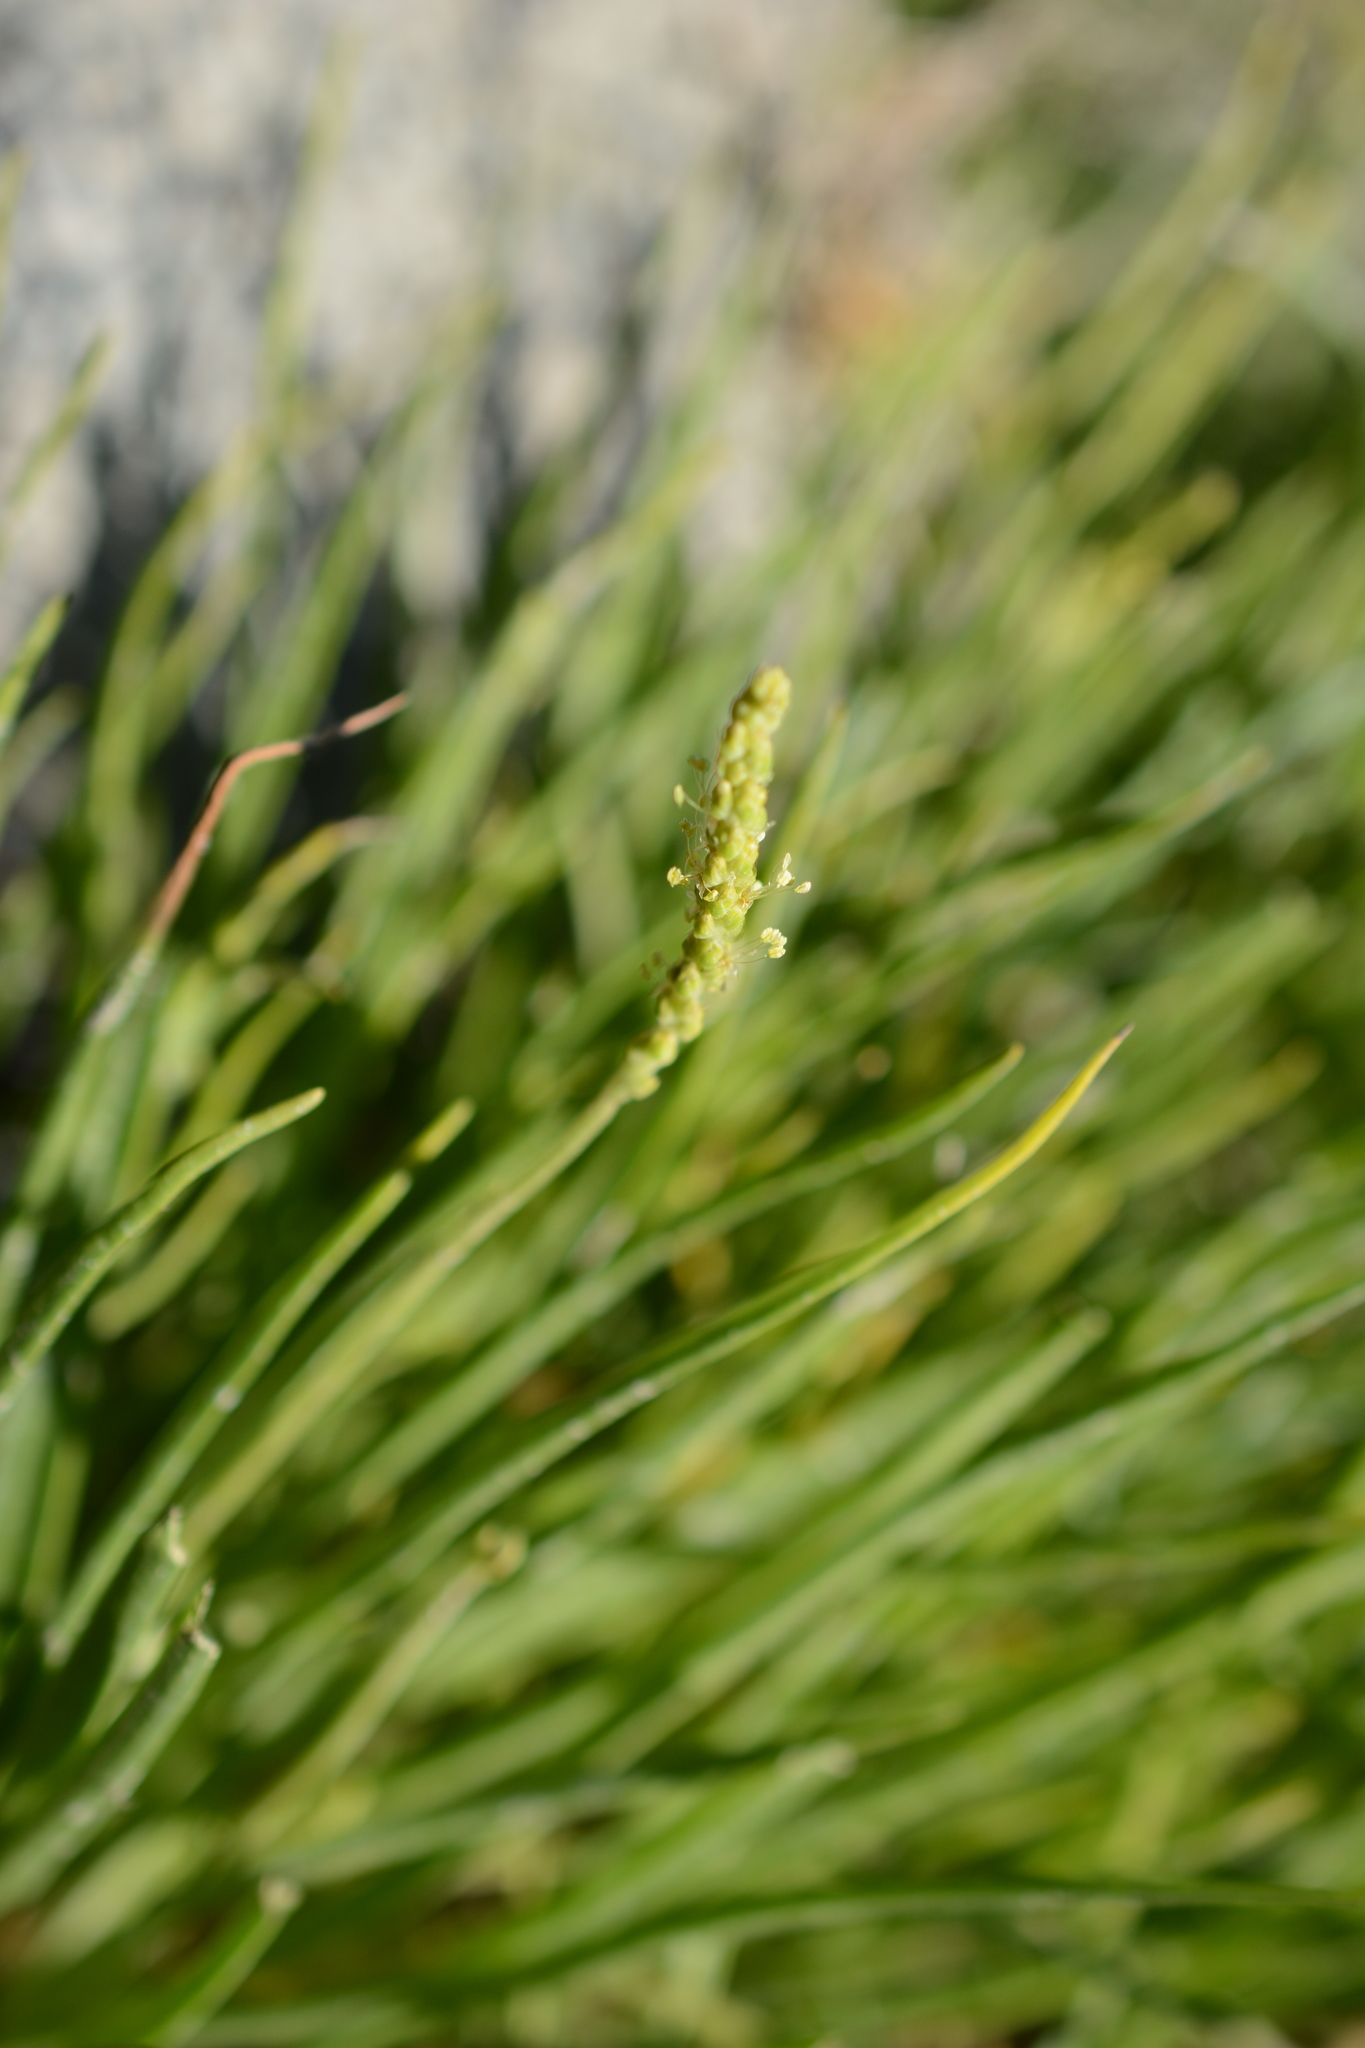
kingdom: Plantae
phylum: Tracheophyta
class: Magnoliopsida
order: Lamiales
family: Plantaginaceae
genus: Plantago
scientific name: Plantago maritima
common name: Sea plantain
